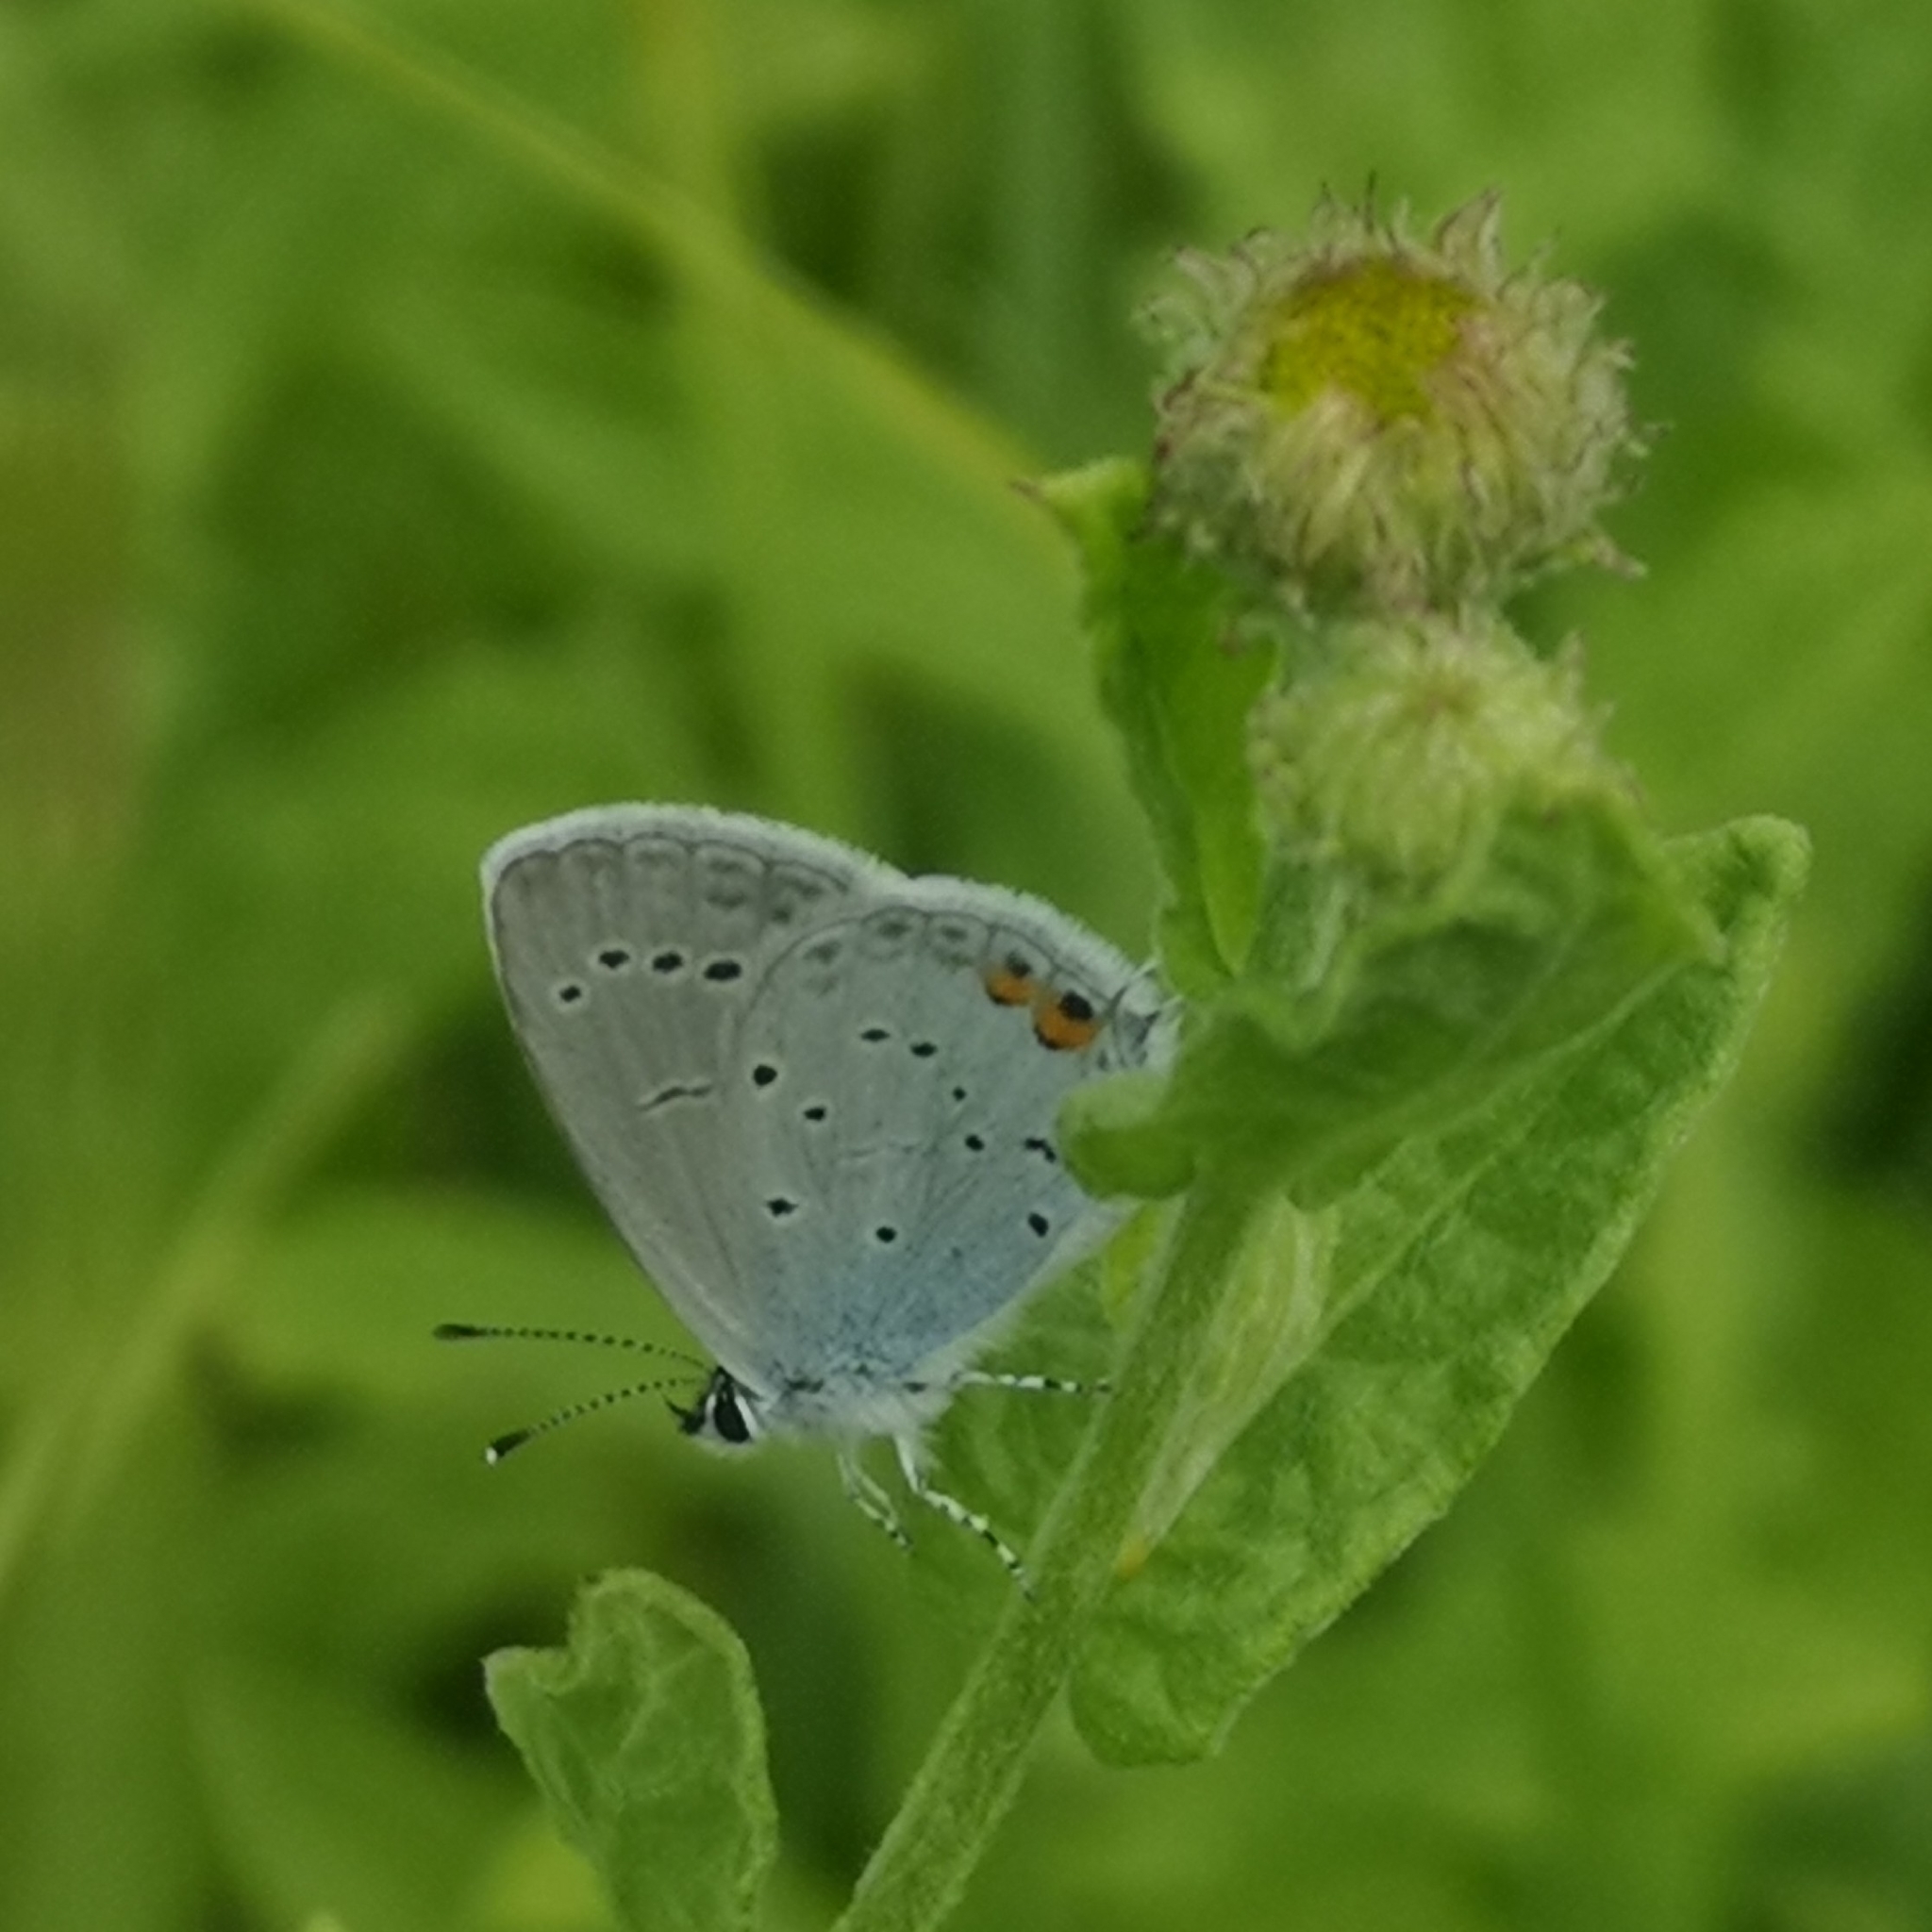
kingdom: Animalia
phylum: Arthropoda
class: Insecta
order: Lepidoptera
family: Lycaenidae
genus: Elkalyce
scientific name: Elkalyce argiades
